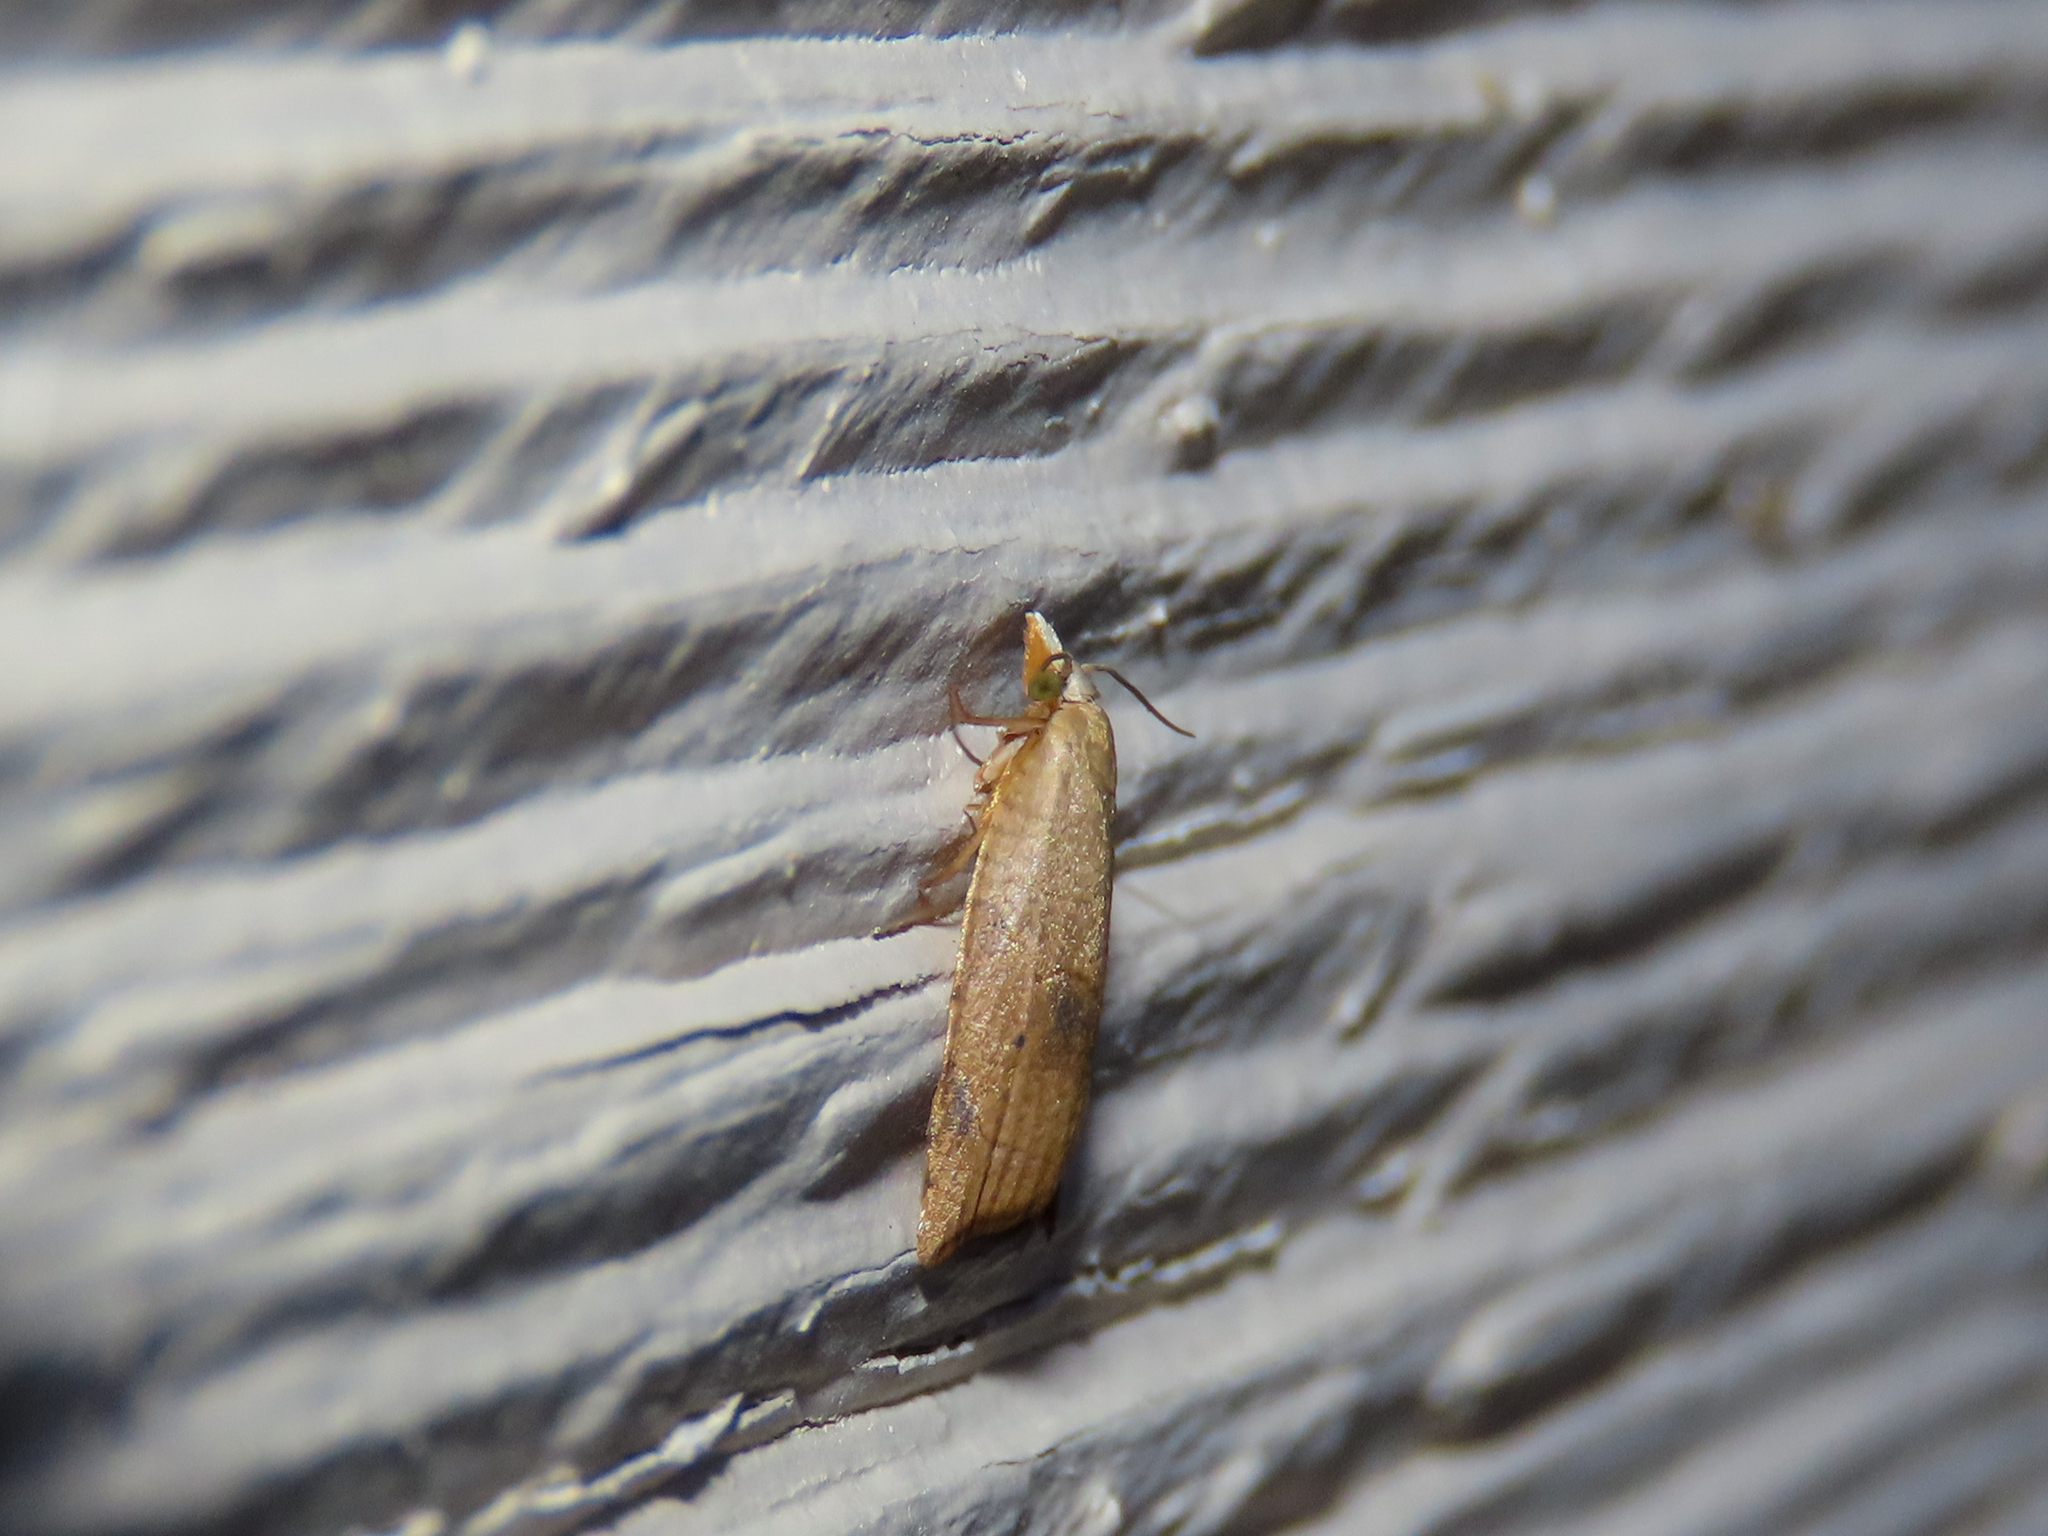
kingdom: Animalia
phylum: Arthropoda
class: Insecta
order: Lepidoptera
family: Tortricidae
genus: Coelostathma
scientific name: Coelostathma discopunctana
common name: Batman moth
